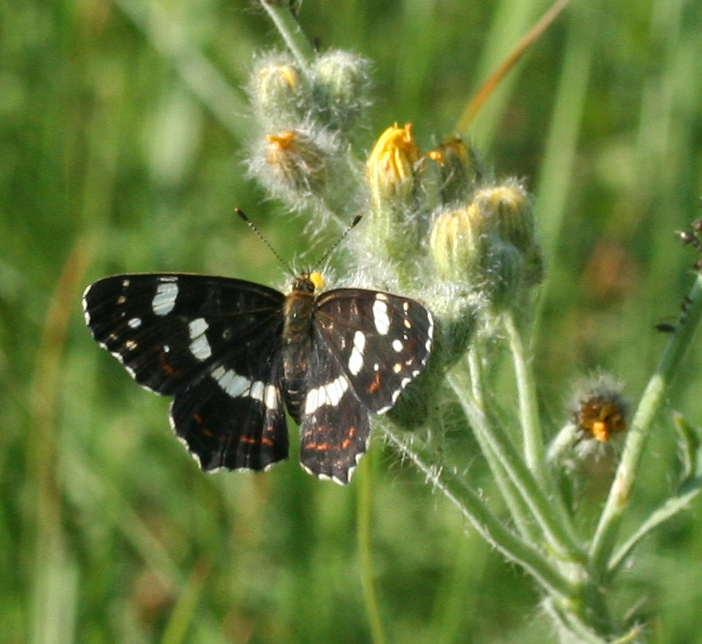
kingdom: Animalia
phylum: Arthropoda
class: Insecta
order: Lepidoptera
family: Nymphalidae
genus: Araschnia
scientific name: Araschnia levana
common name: Map butterfly
